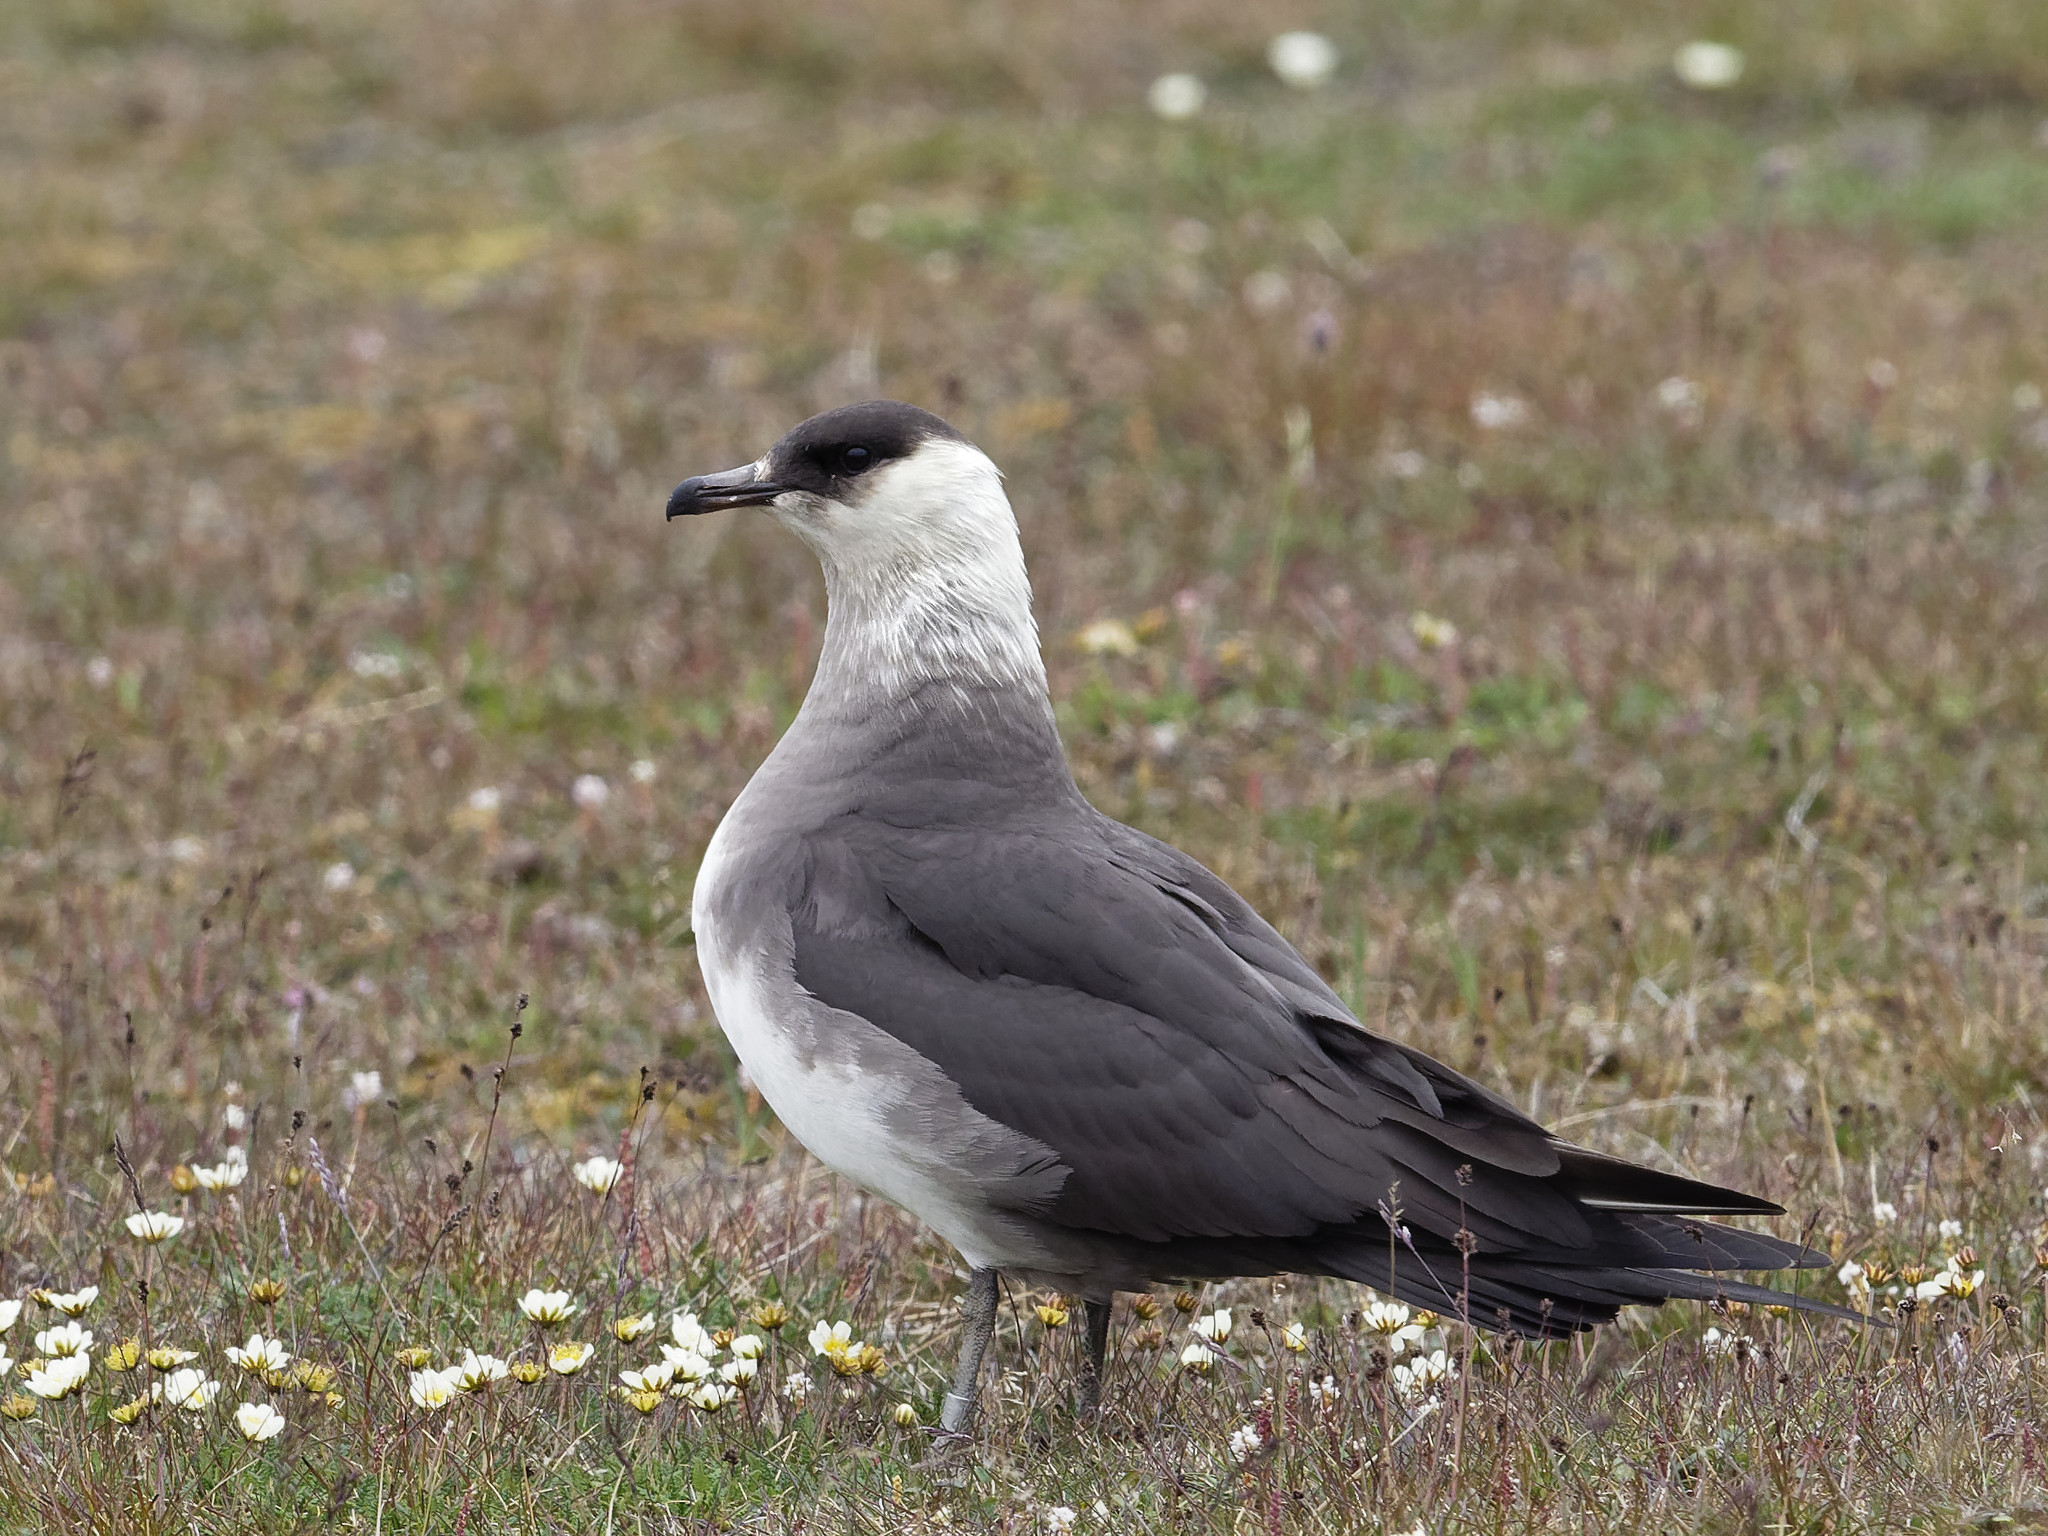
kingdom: Animalia
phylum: Chordata
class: Aves
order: Charadriiformes
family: Stercorariidae
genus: Stercorarius
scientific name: Stercorarius parasiticus
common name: Parasitic jaeger
